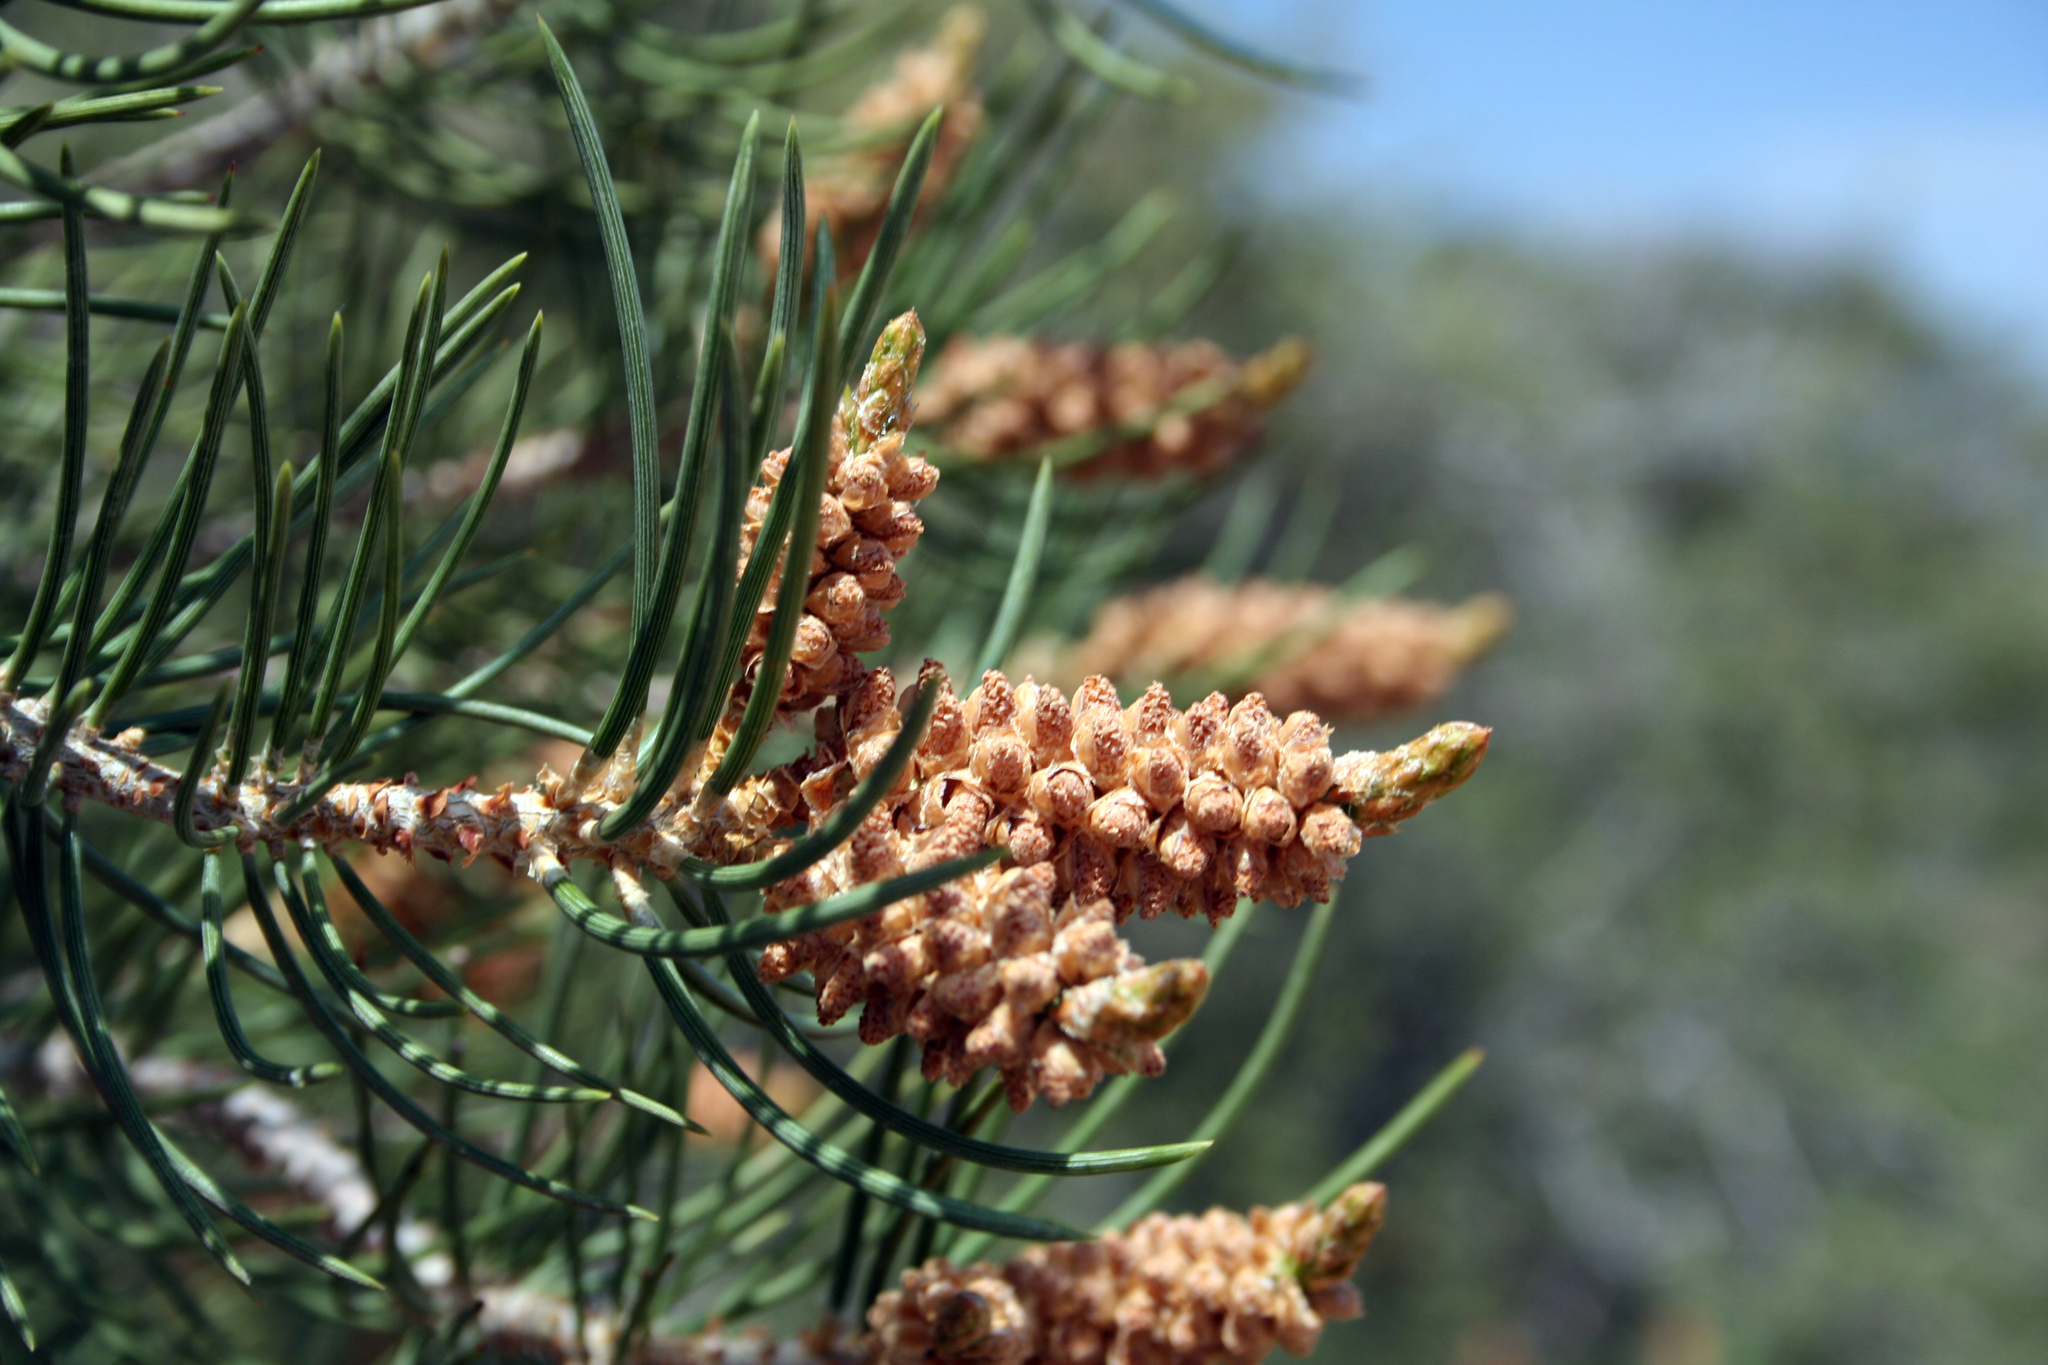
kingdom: Plantae
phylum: Tracheophyta
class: Pinopsida
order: Pinales
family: Pinaceae
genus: Pinus
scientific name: Pinus monophylla
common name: One-leaved nut pine
